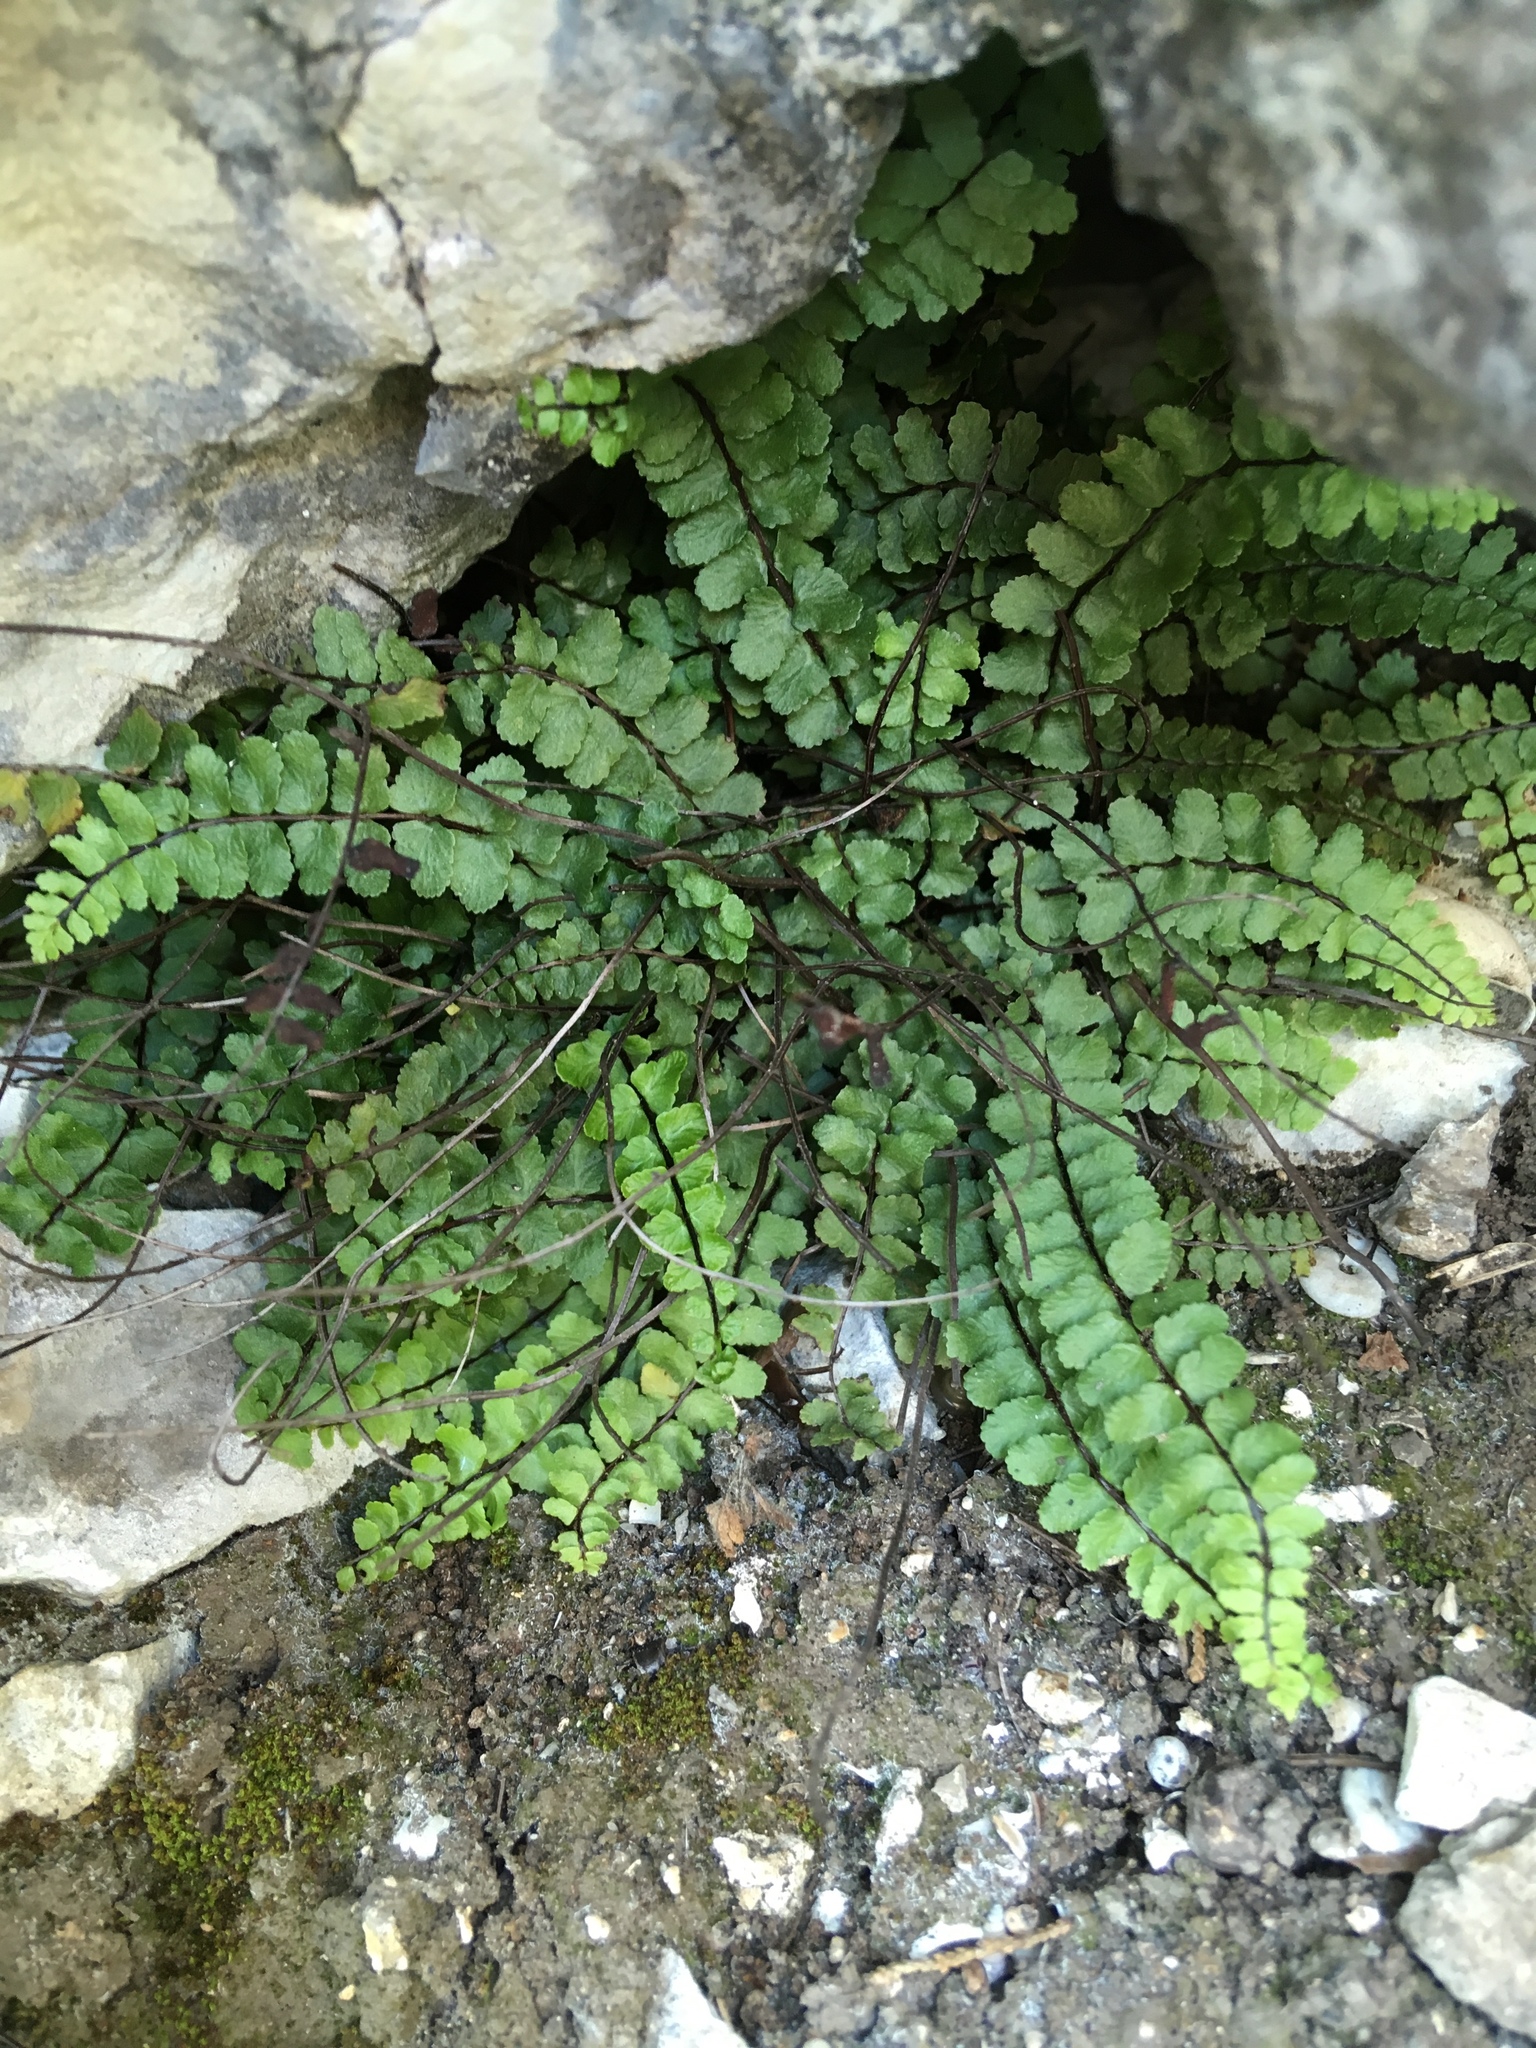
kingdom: Plantae
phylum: Tracheophyta
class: Polypodiopsida
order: Polypodiales
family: Aspleniaceae
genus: Asplenium
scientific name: Asplenium trichomanes
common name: Maidenhair spleenwort
